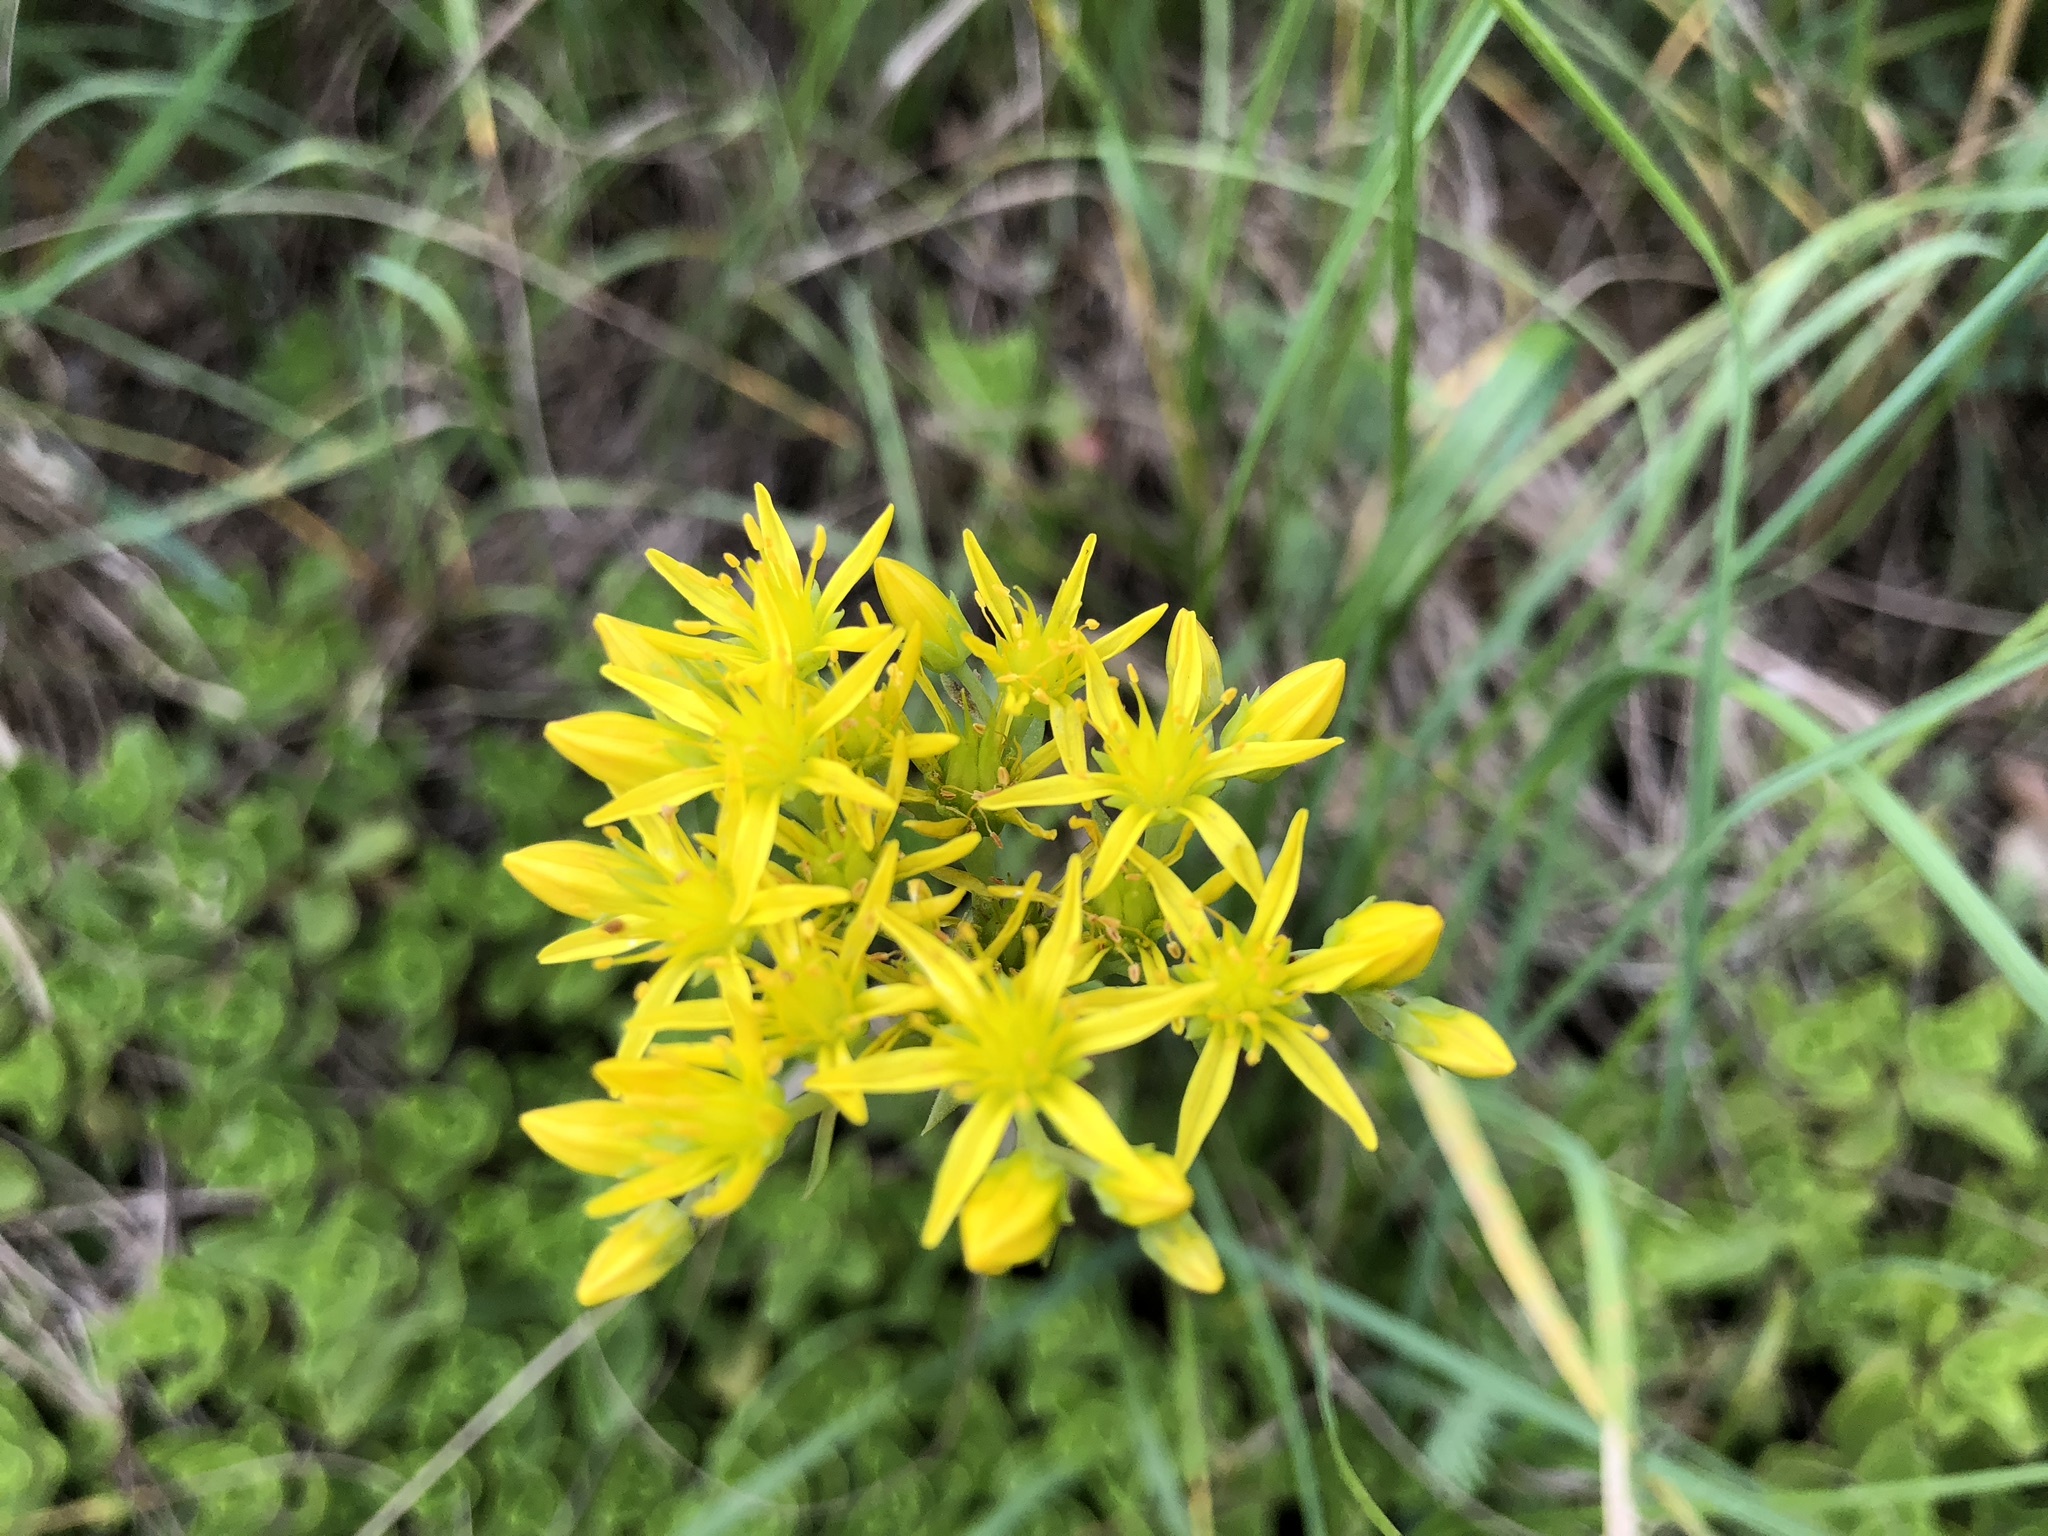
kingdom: Plantae
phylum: Tracheophyta
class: Magnoliopsida
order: Saxifragales
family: Crassulaceae
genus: Petrosedum
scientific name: Petrosedum montanum
